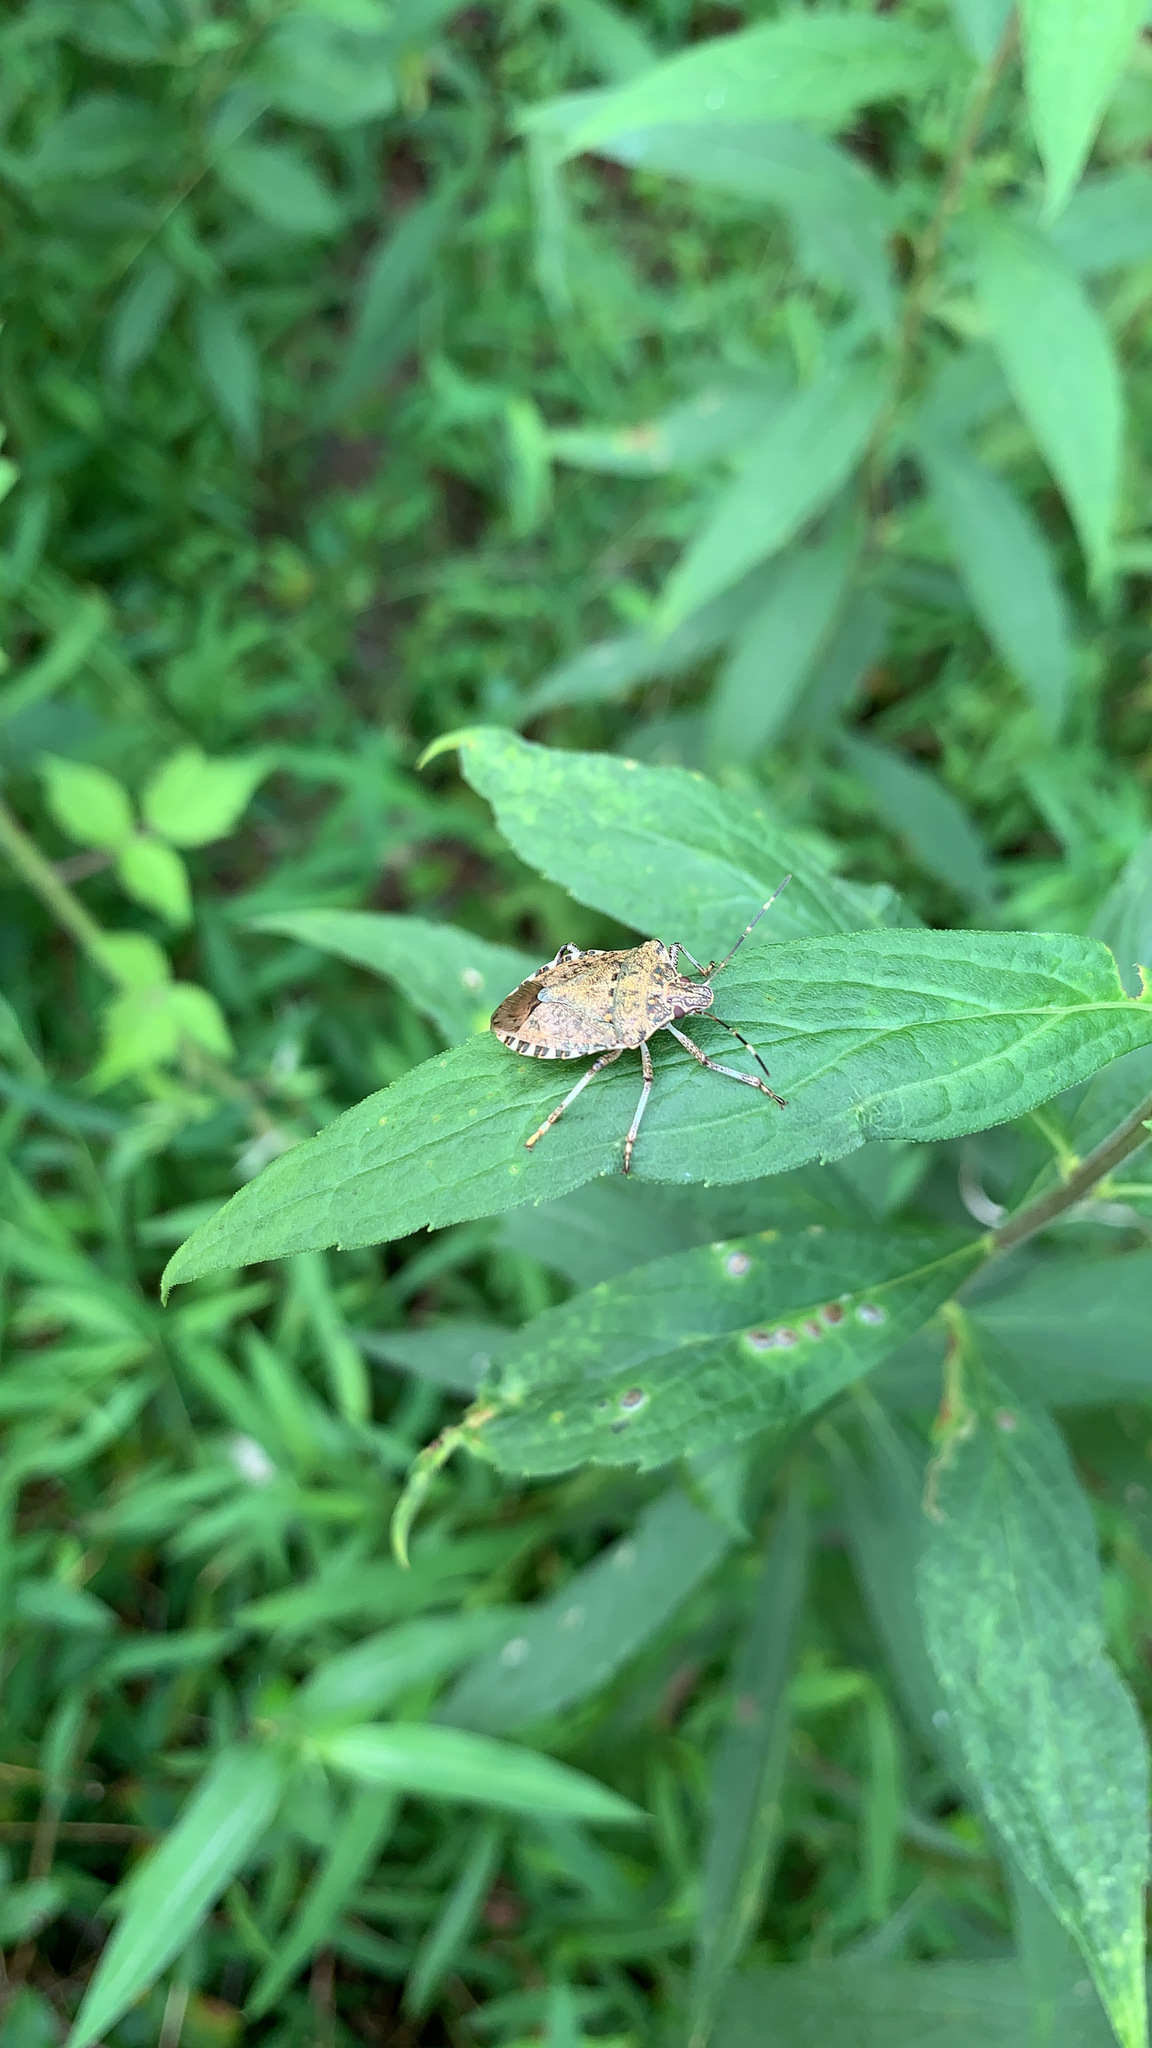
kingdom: Animalia
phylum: Arthropoda
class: Insecta
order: Hemiptera
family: Pentatomidae
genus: Halyomorpha
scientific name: Halyomorpha halys
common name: Brown marmorated stink bug
